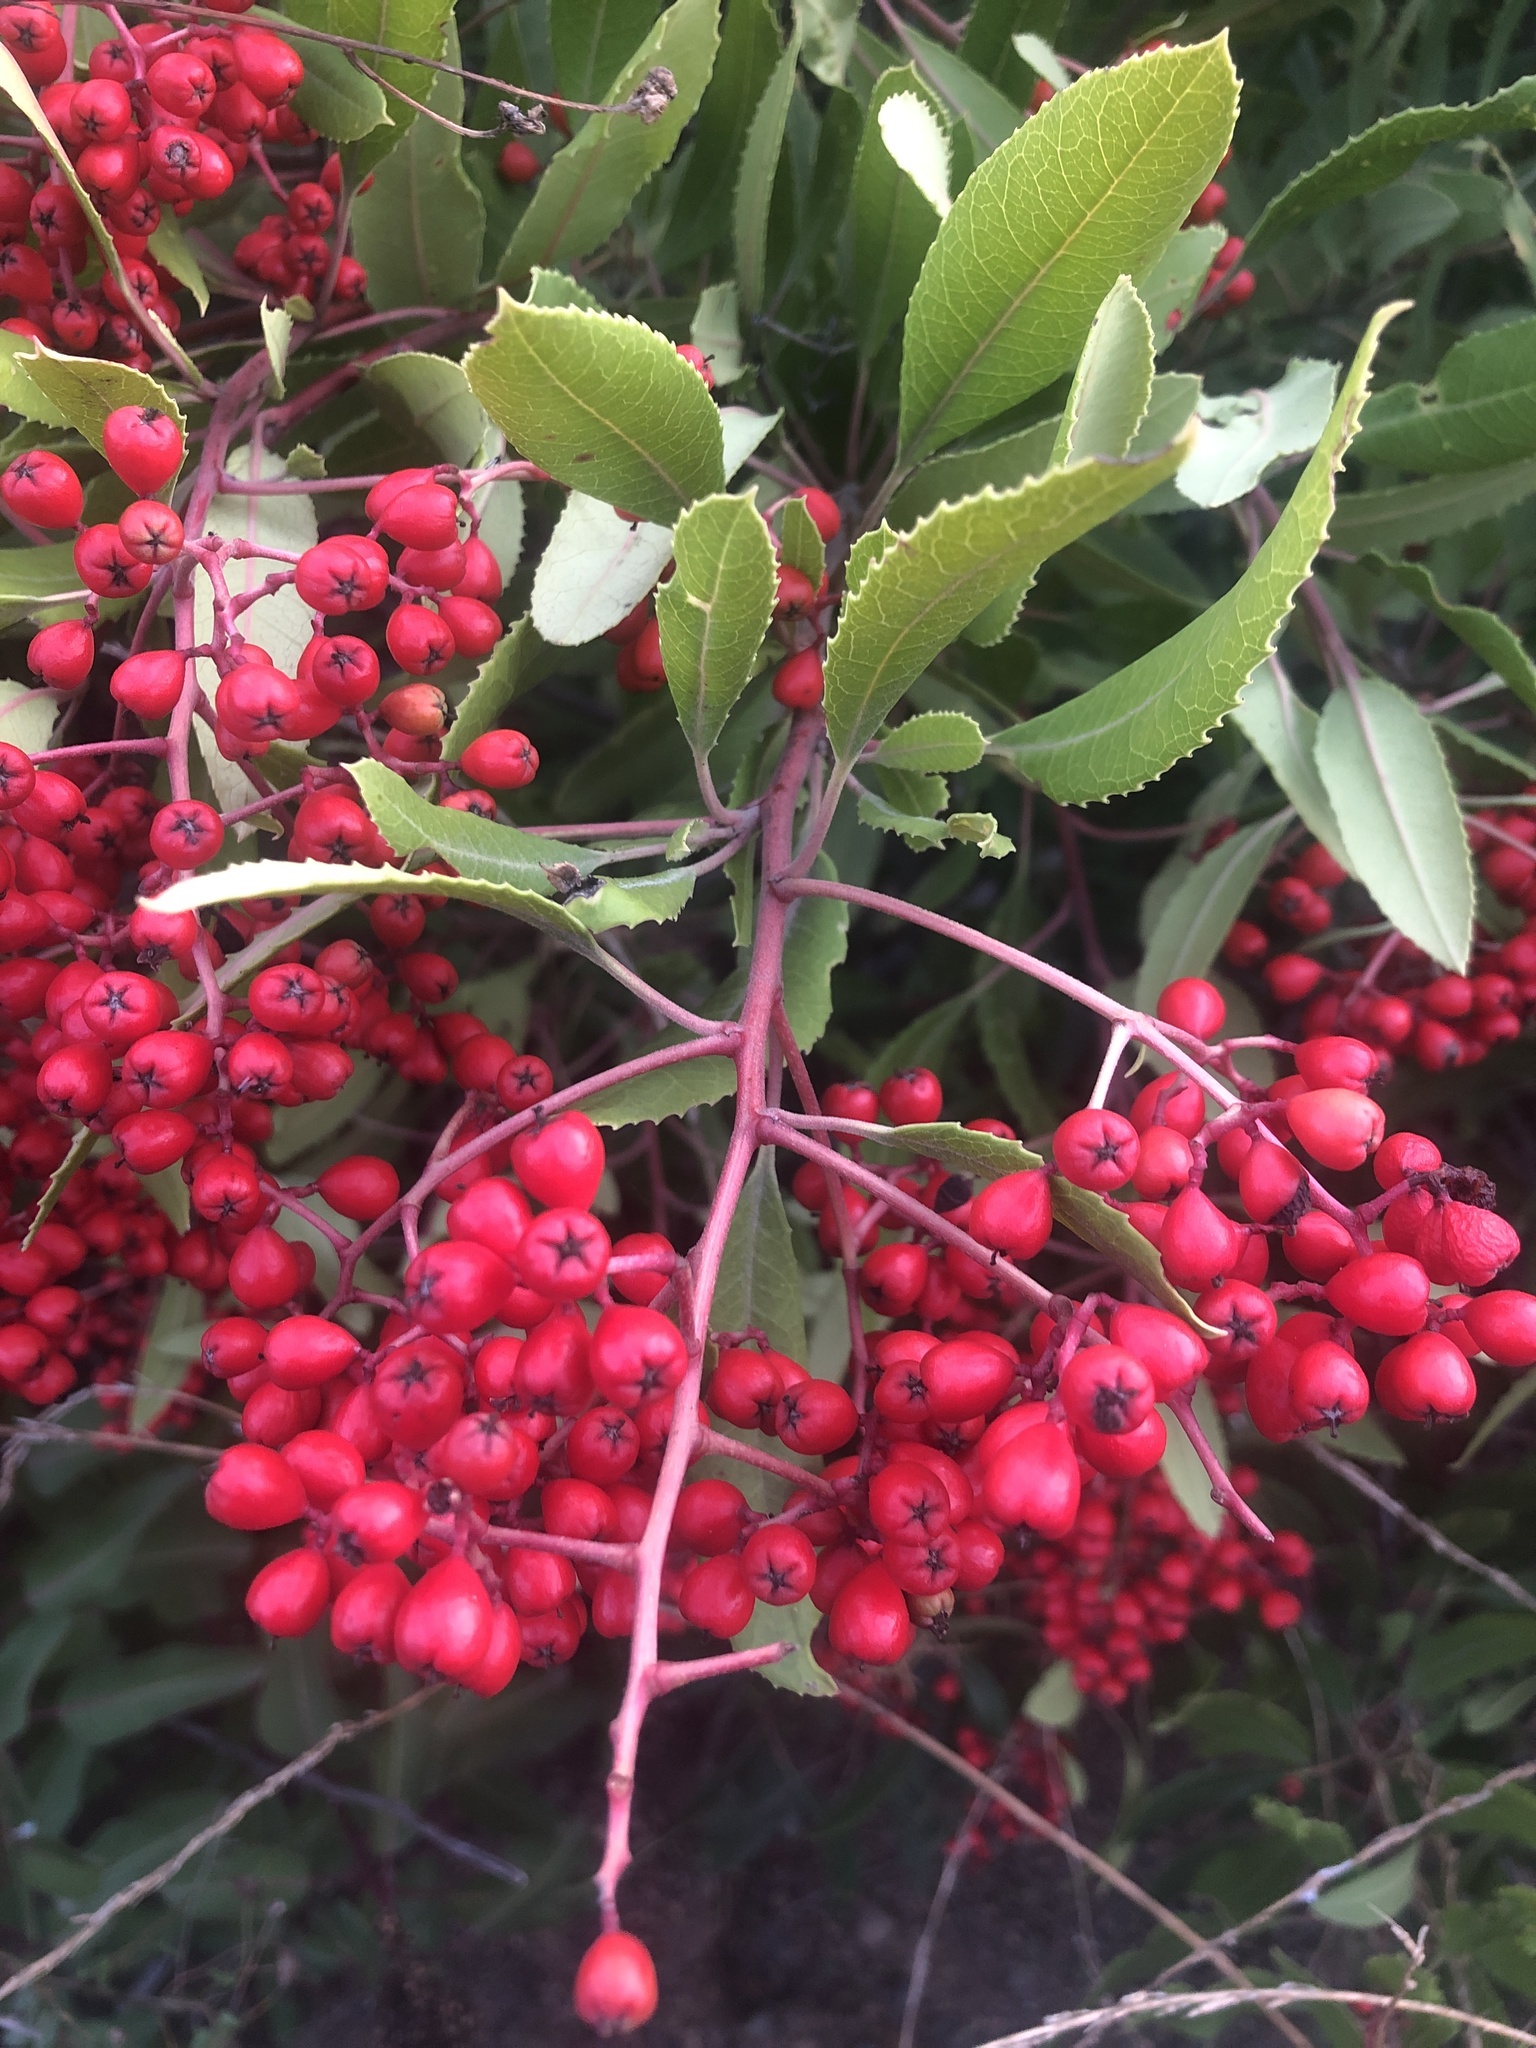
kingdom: Plantae
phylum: Tracheophyta
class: Magnoliopsida
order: Rosales
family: Rosaceae
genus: Heteromeles
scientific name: Heteromeles arbutifolia
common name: California-holly
